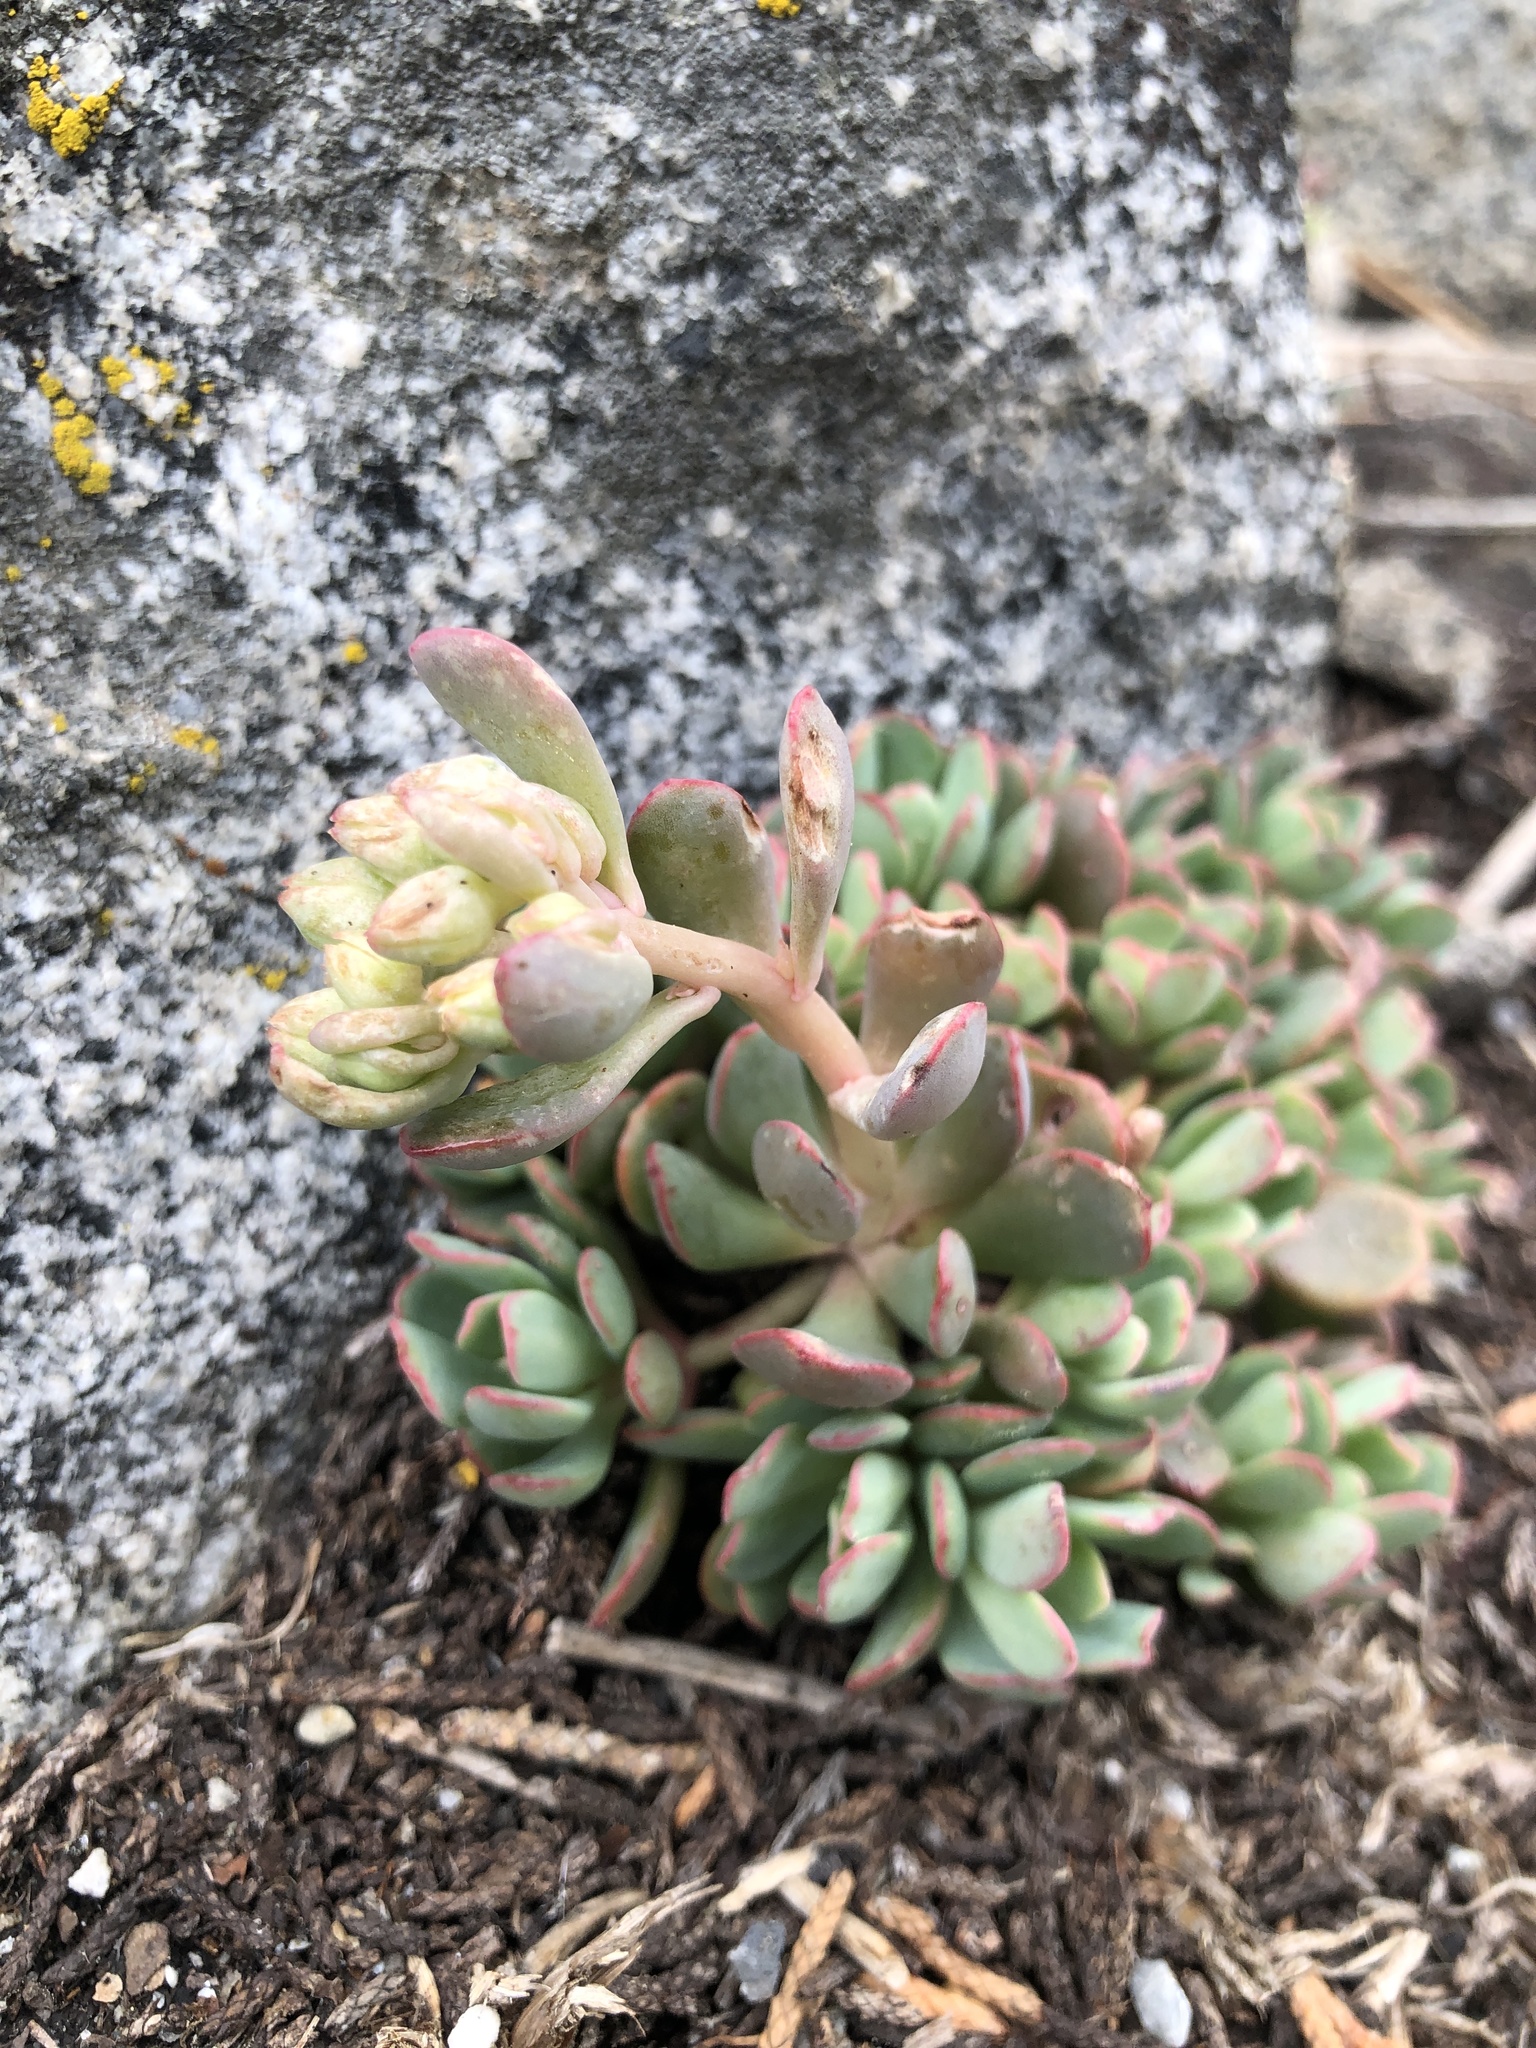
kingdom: Plantae
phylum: Tracheophyta
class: Magnoliopsida
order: Saxifragales
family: Crassulaceae
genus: Sedum
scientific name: Sedum obtusatum
